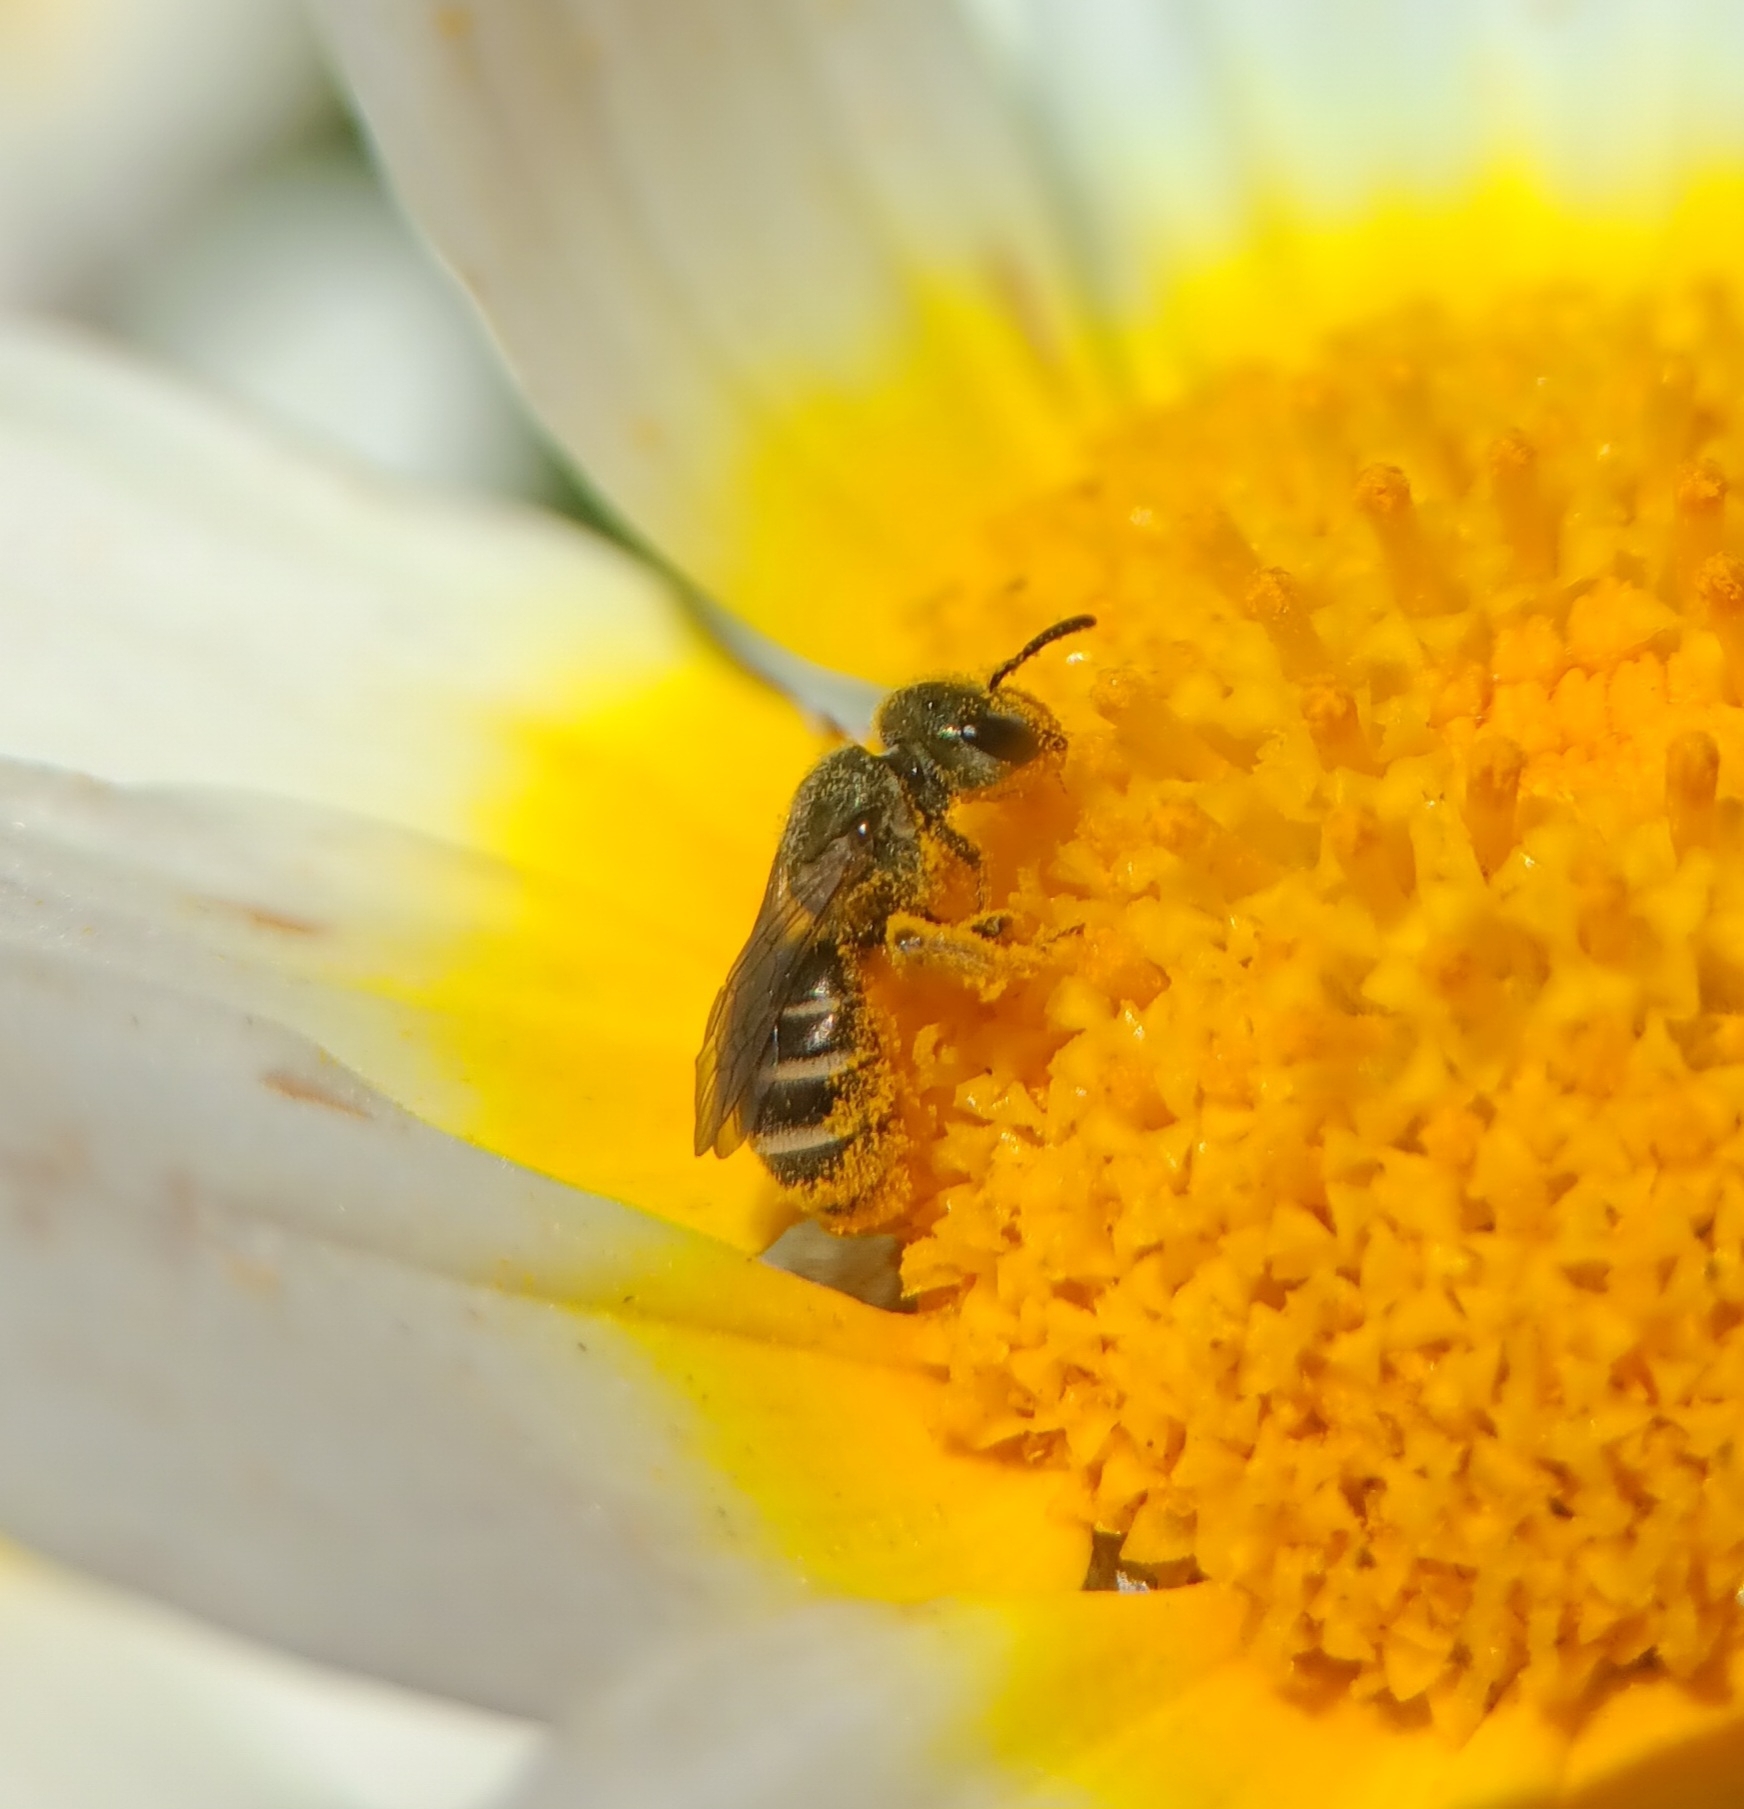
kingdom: Animalia
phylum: Arthropoda
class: Insecta
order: Hymenoptera
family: Halictidae
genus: Halictus
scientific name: Halictus tripartitus
